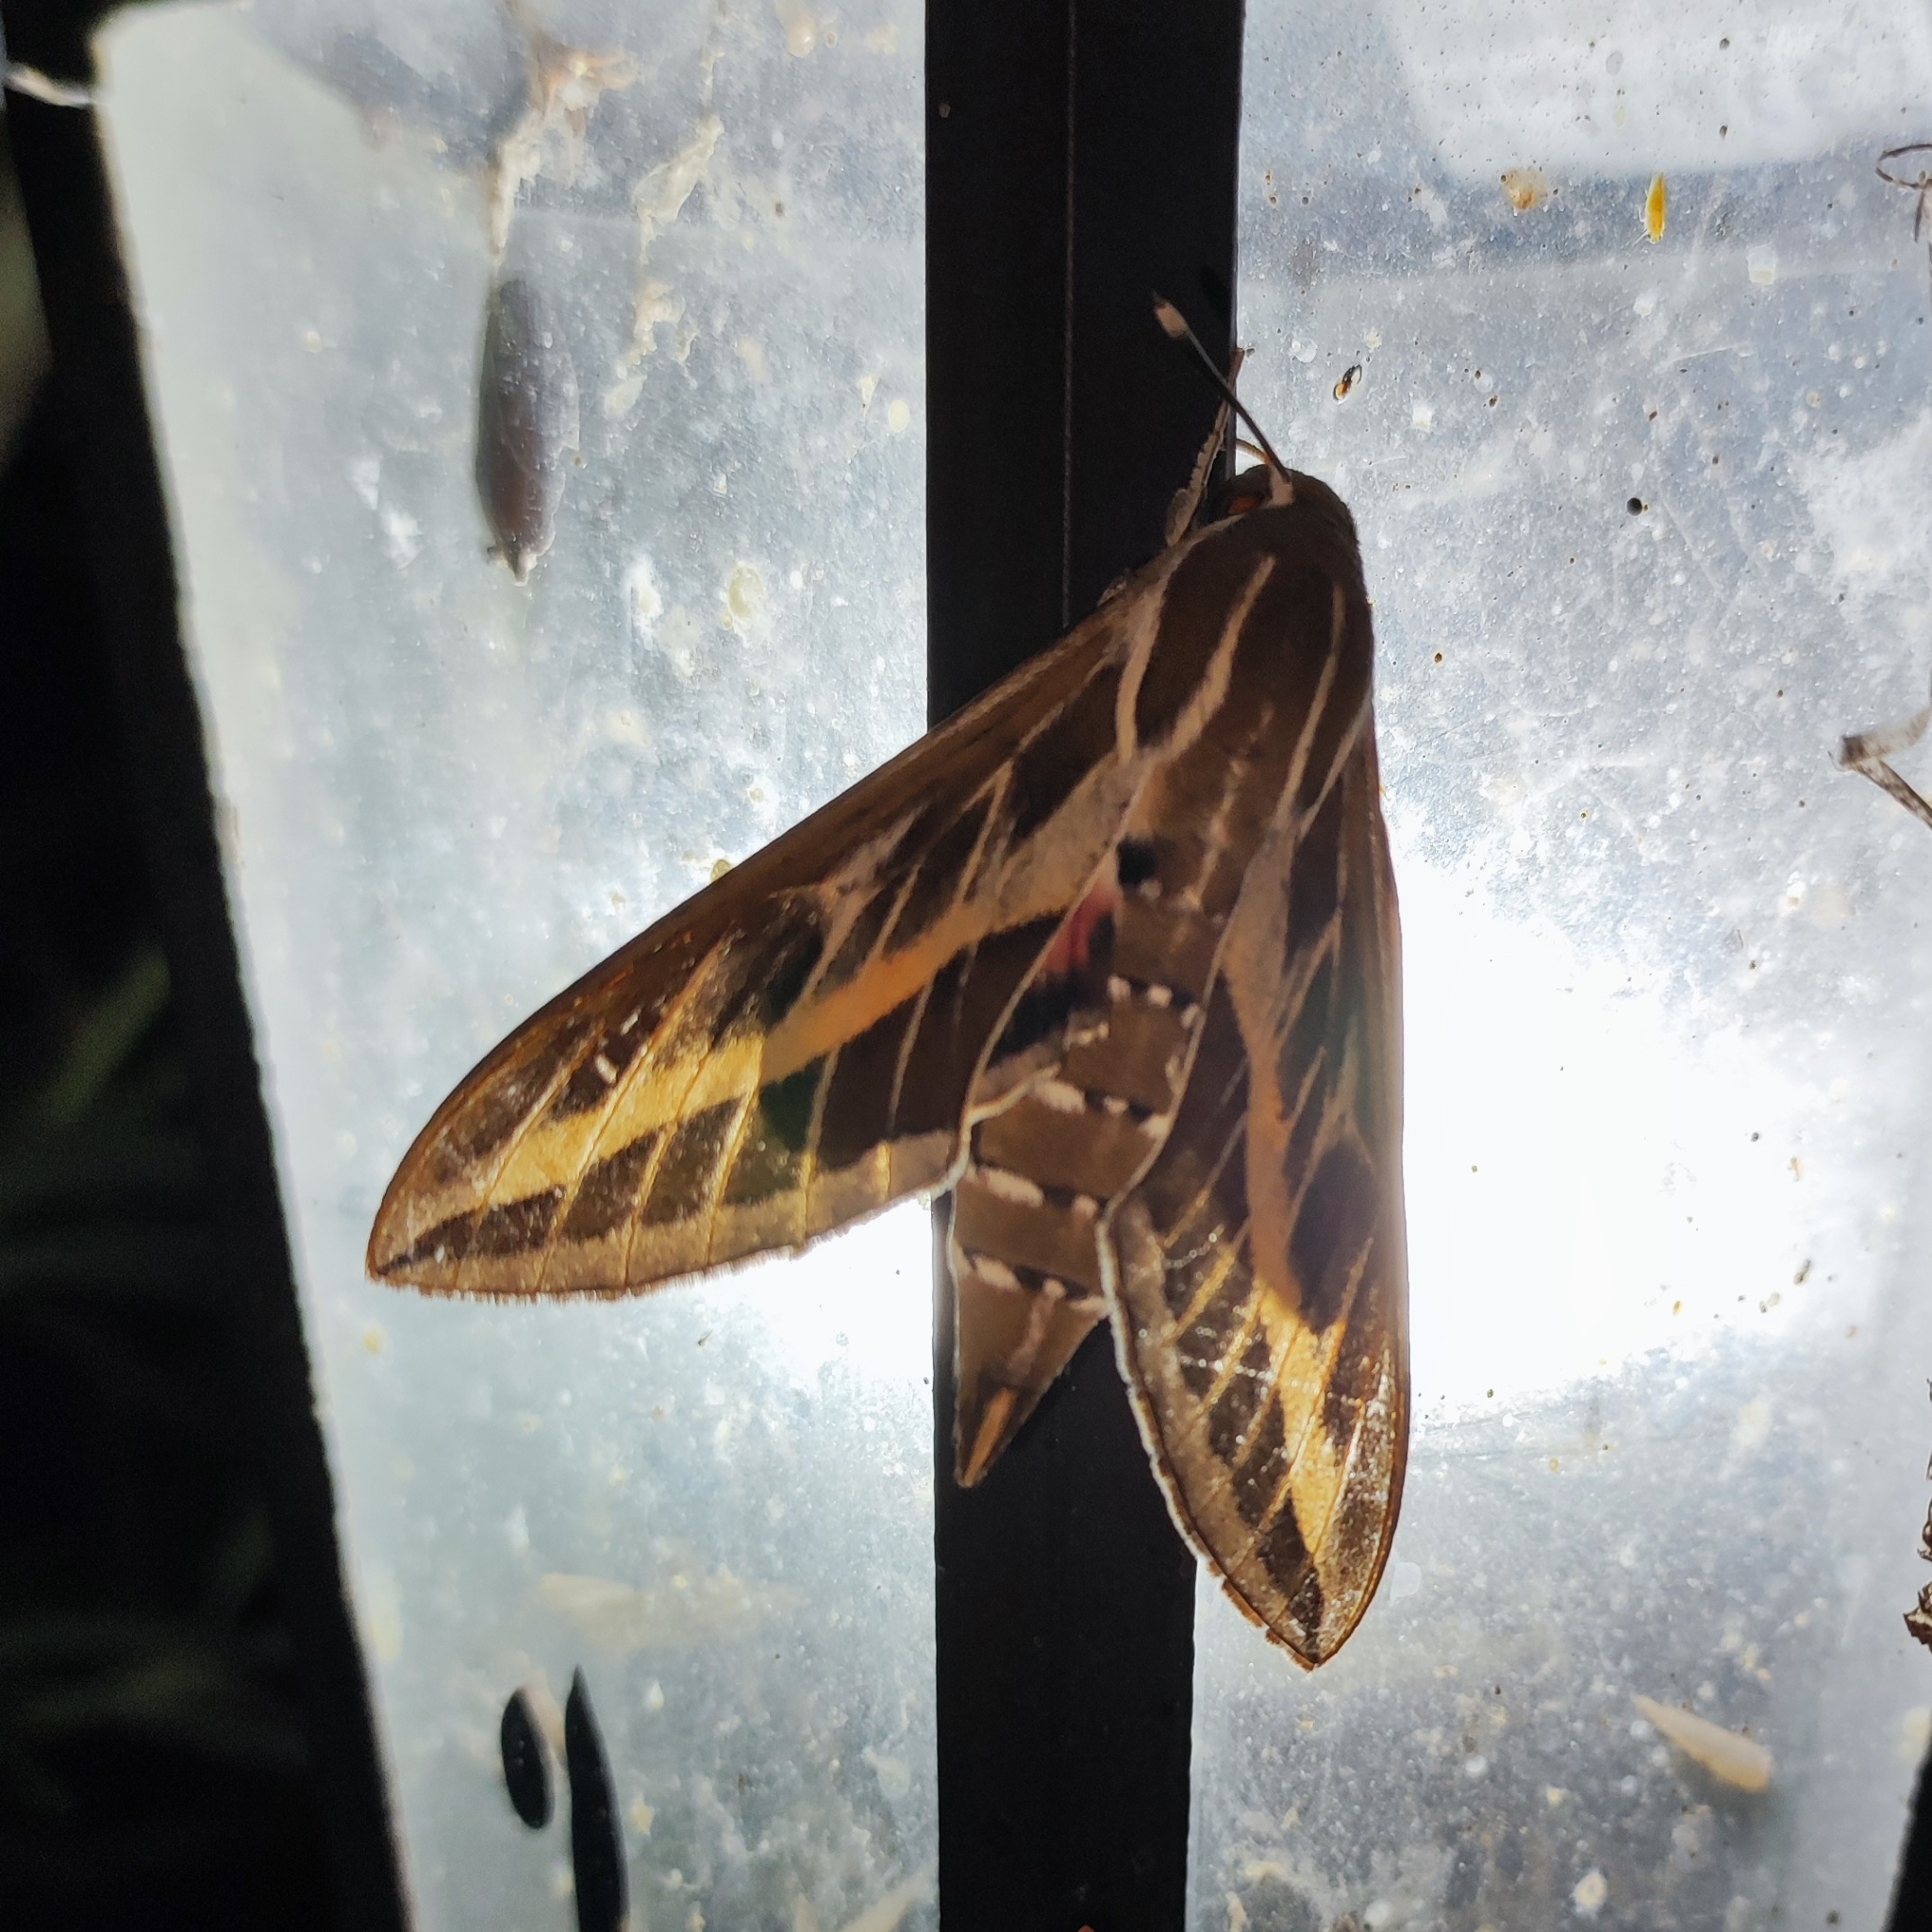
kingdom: Animalia
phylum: Arthropoda
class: Insecta
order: Lepidoptera
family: Sphingidae
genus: Hyles
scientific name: Hyles livornica
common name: Striped hawk-moth
